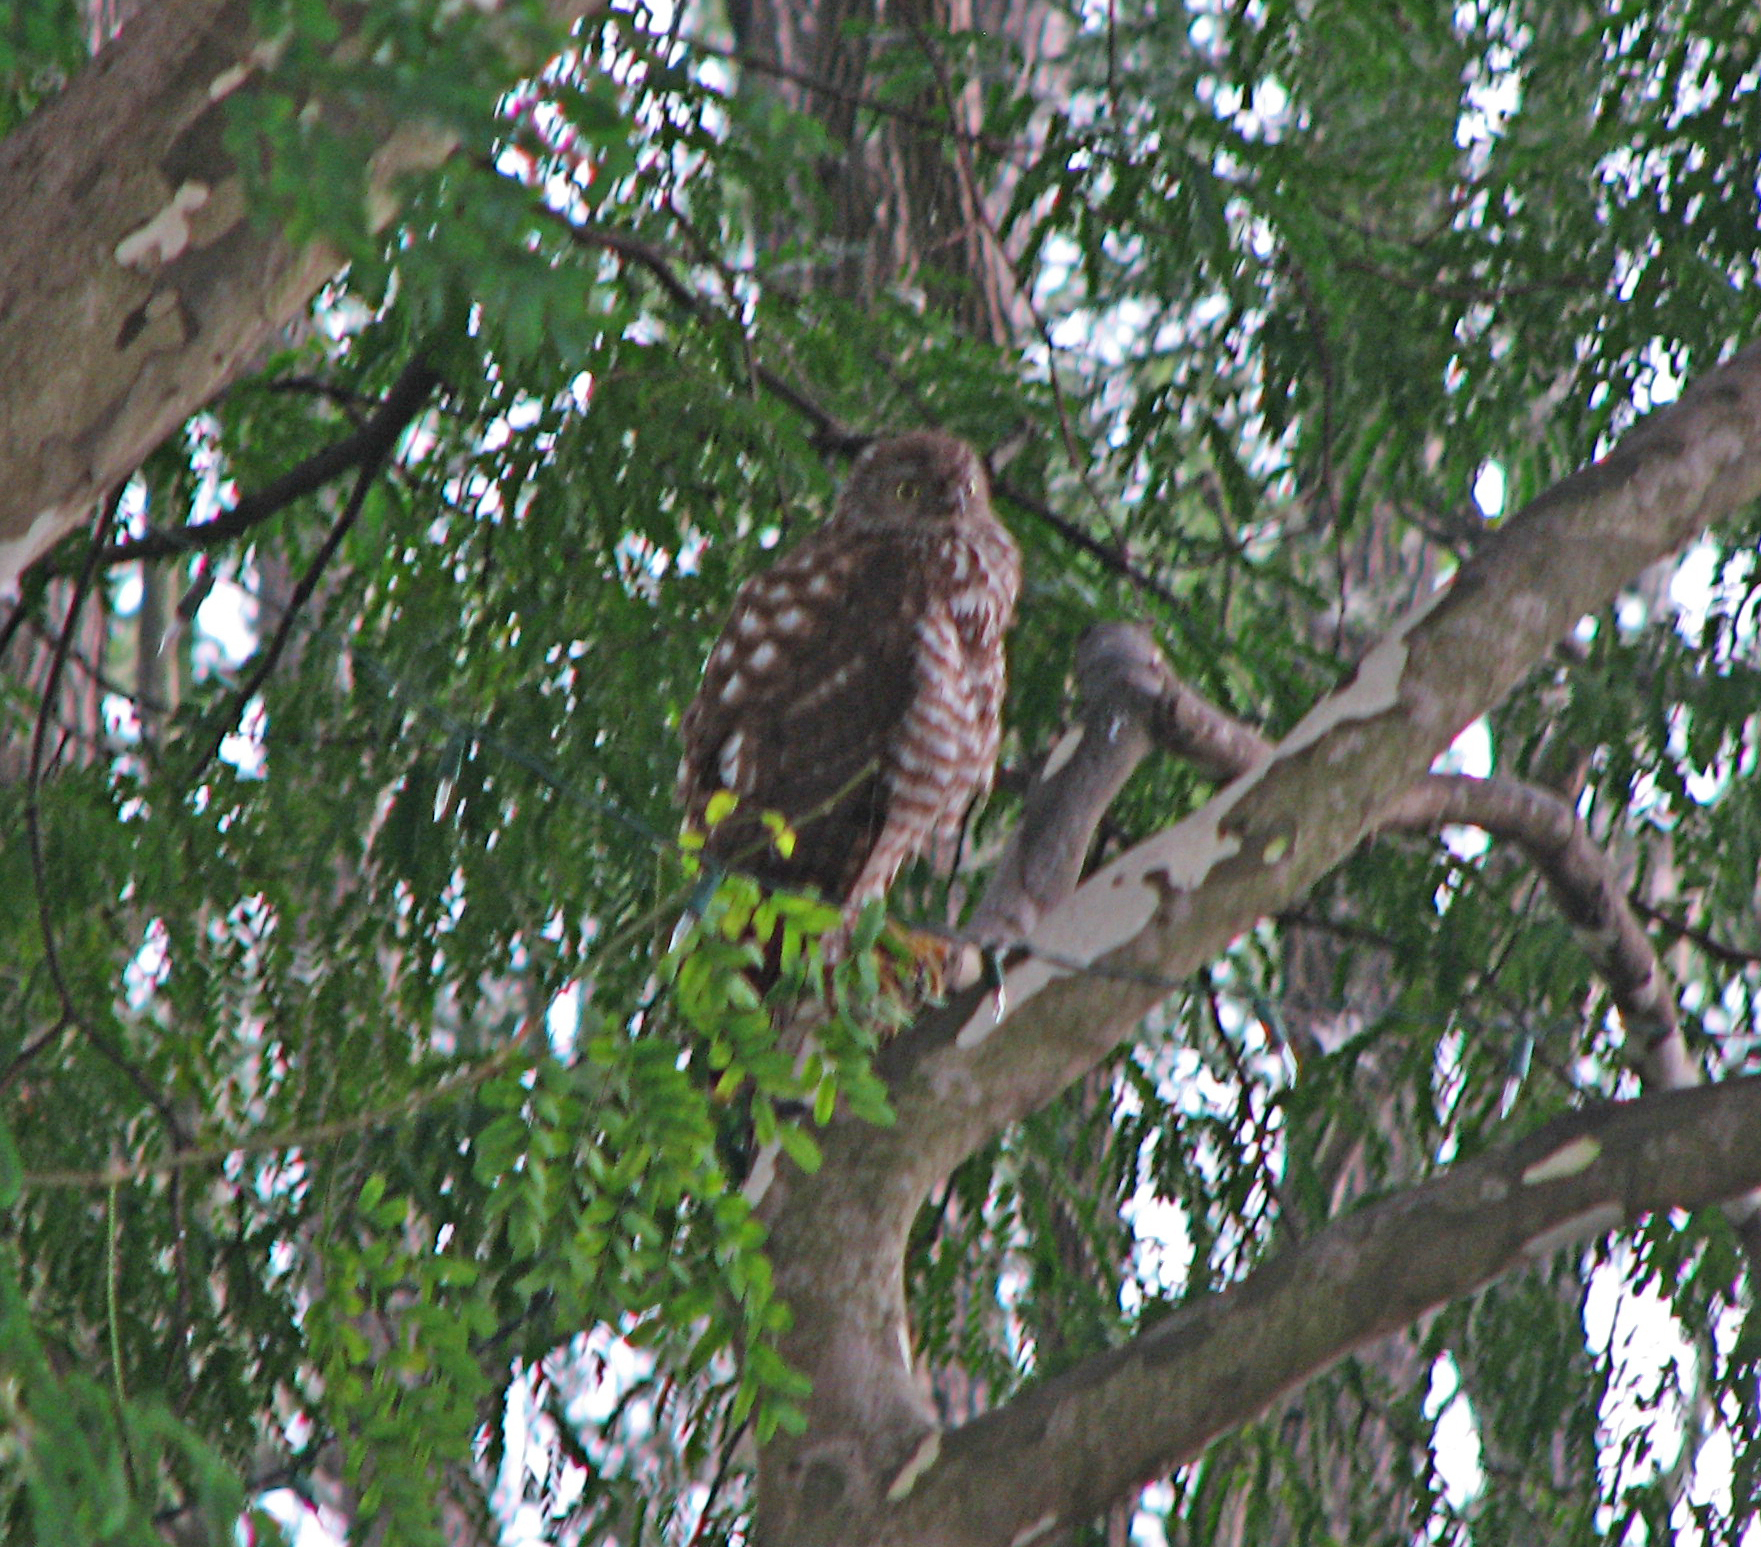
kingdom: Animalia
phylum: Chordata
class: Aves
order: Accipitriformes
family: Accipitridae
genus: Accipiter
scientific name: Accipiter fasciatus
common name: Brown goshawk
